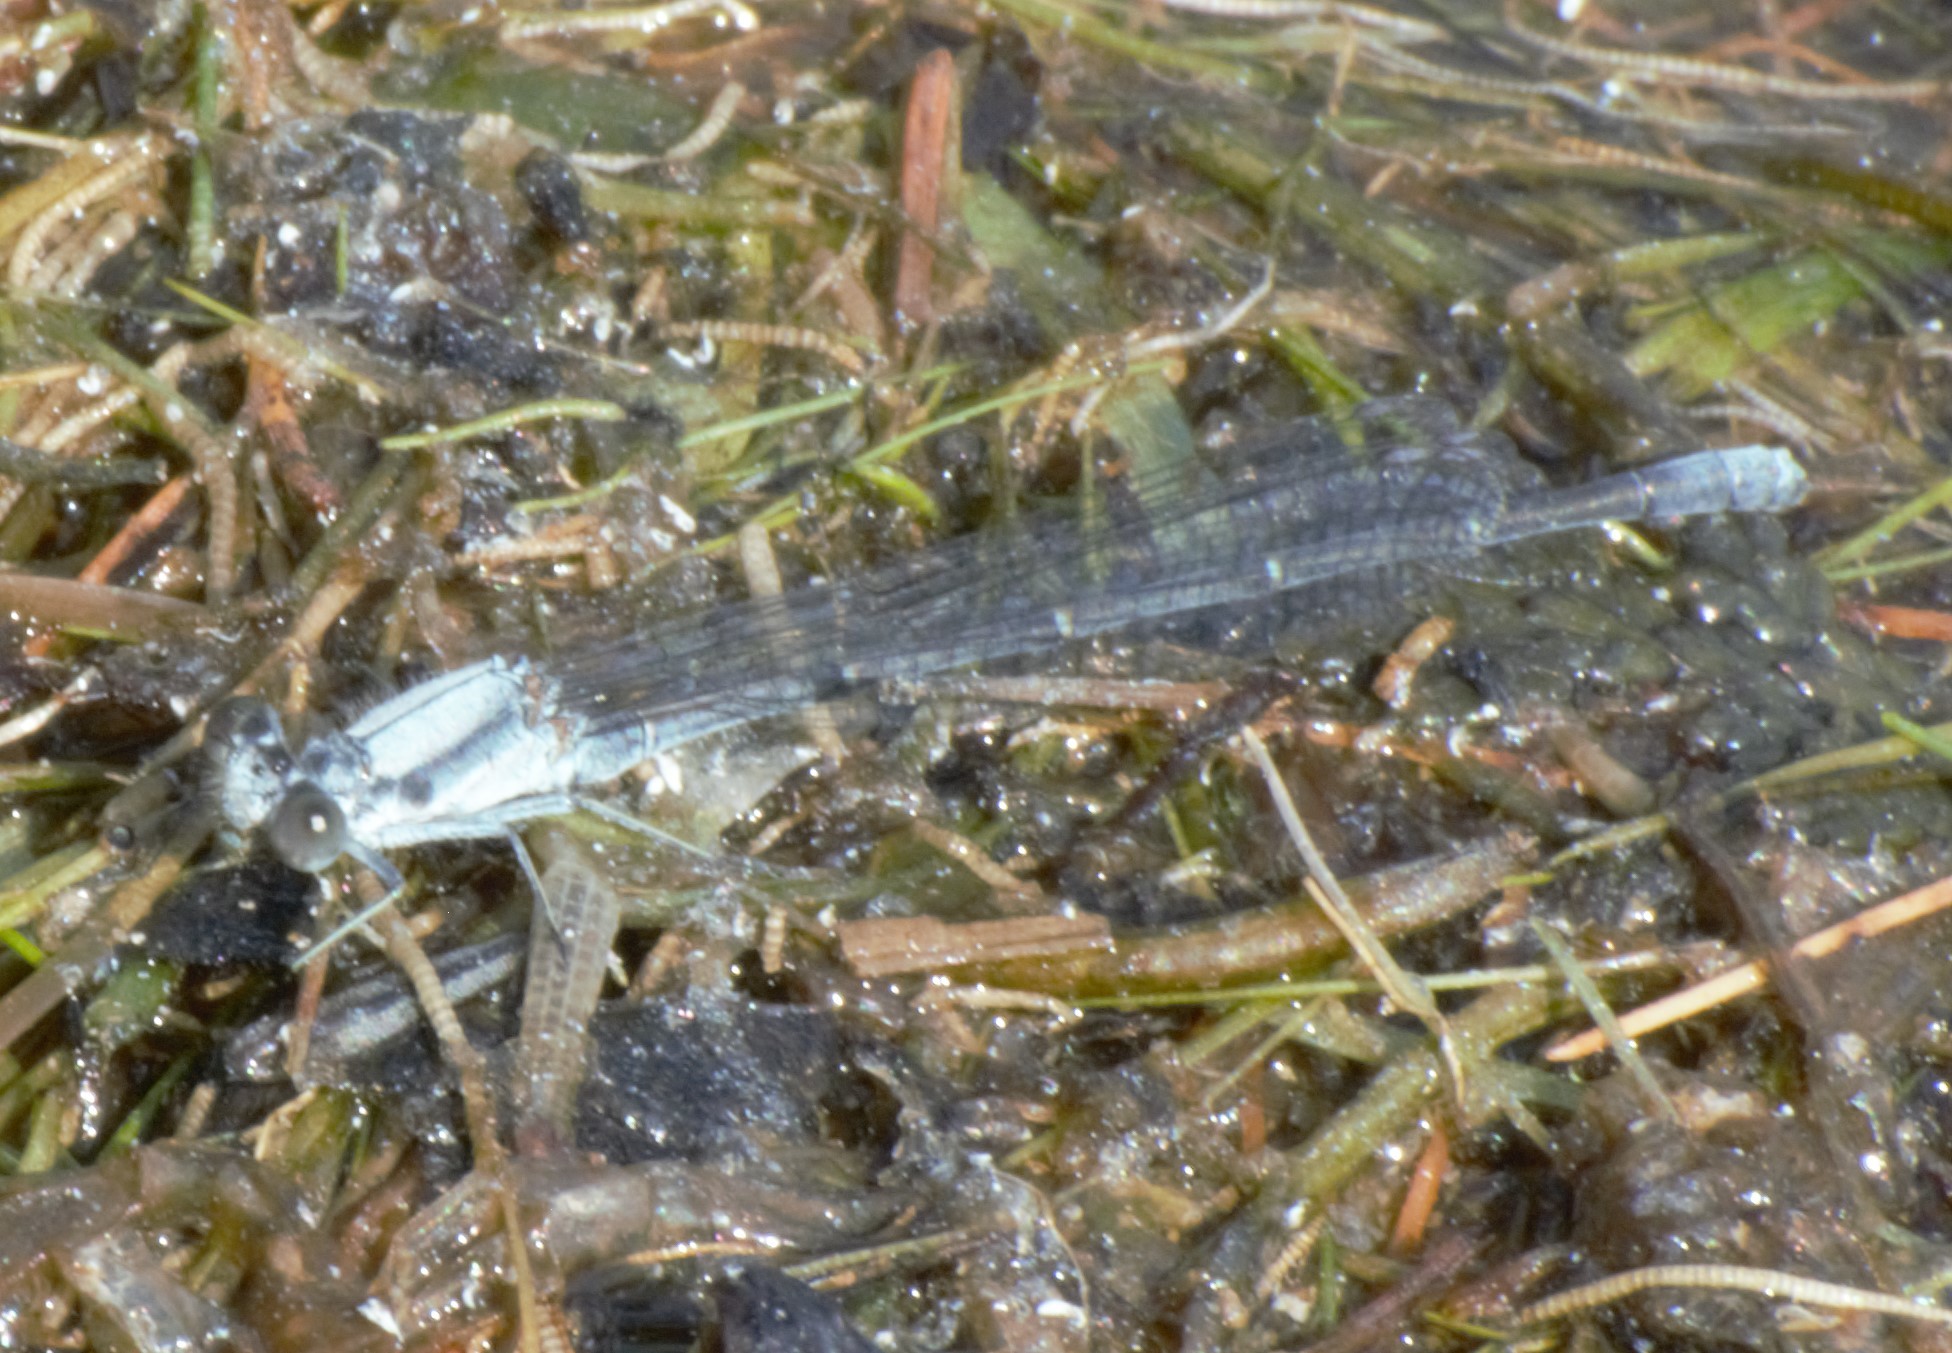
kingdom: Animalia
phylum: Arthropoda
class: Insecta
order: Odonata
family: Coenagrionidae
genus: Argia
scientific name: Argia moesta
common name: Powdered dancer
